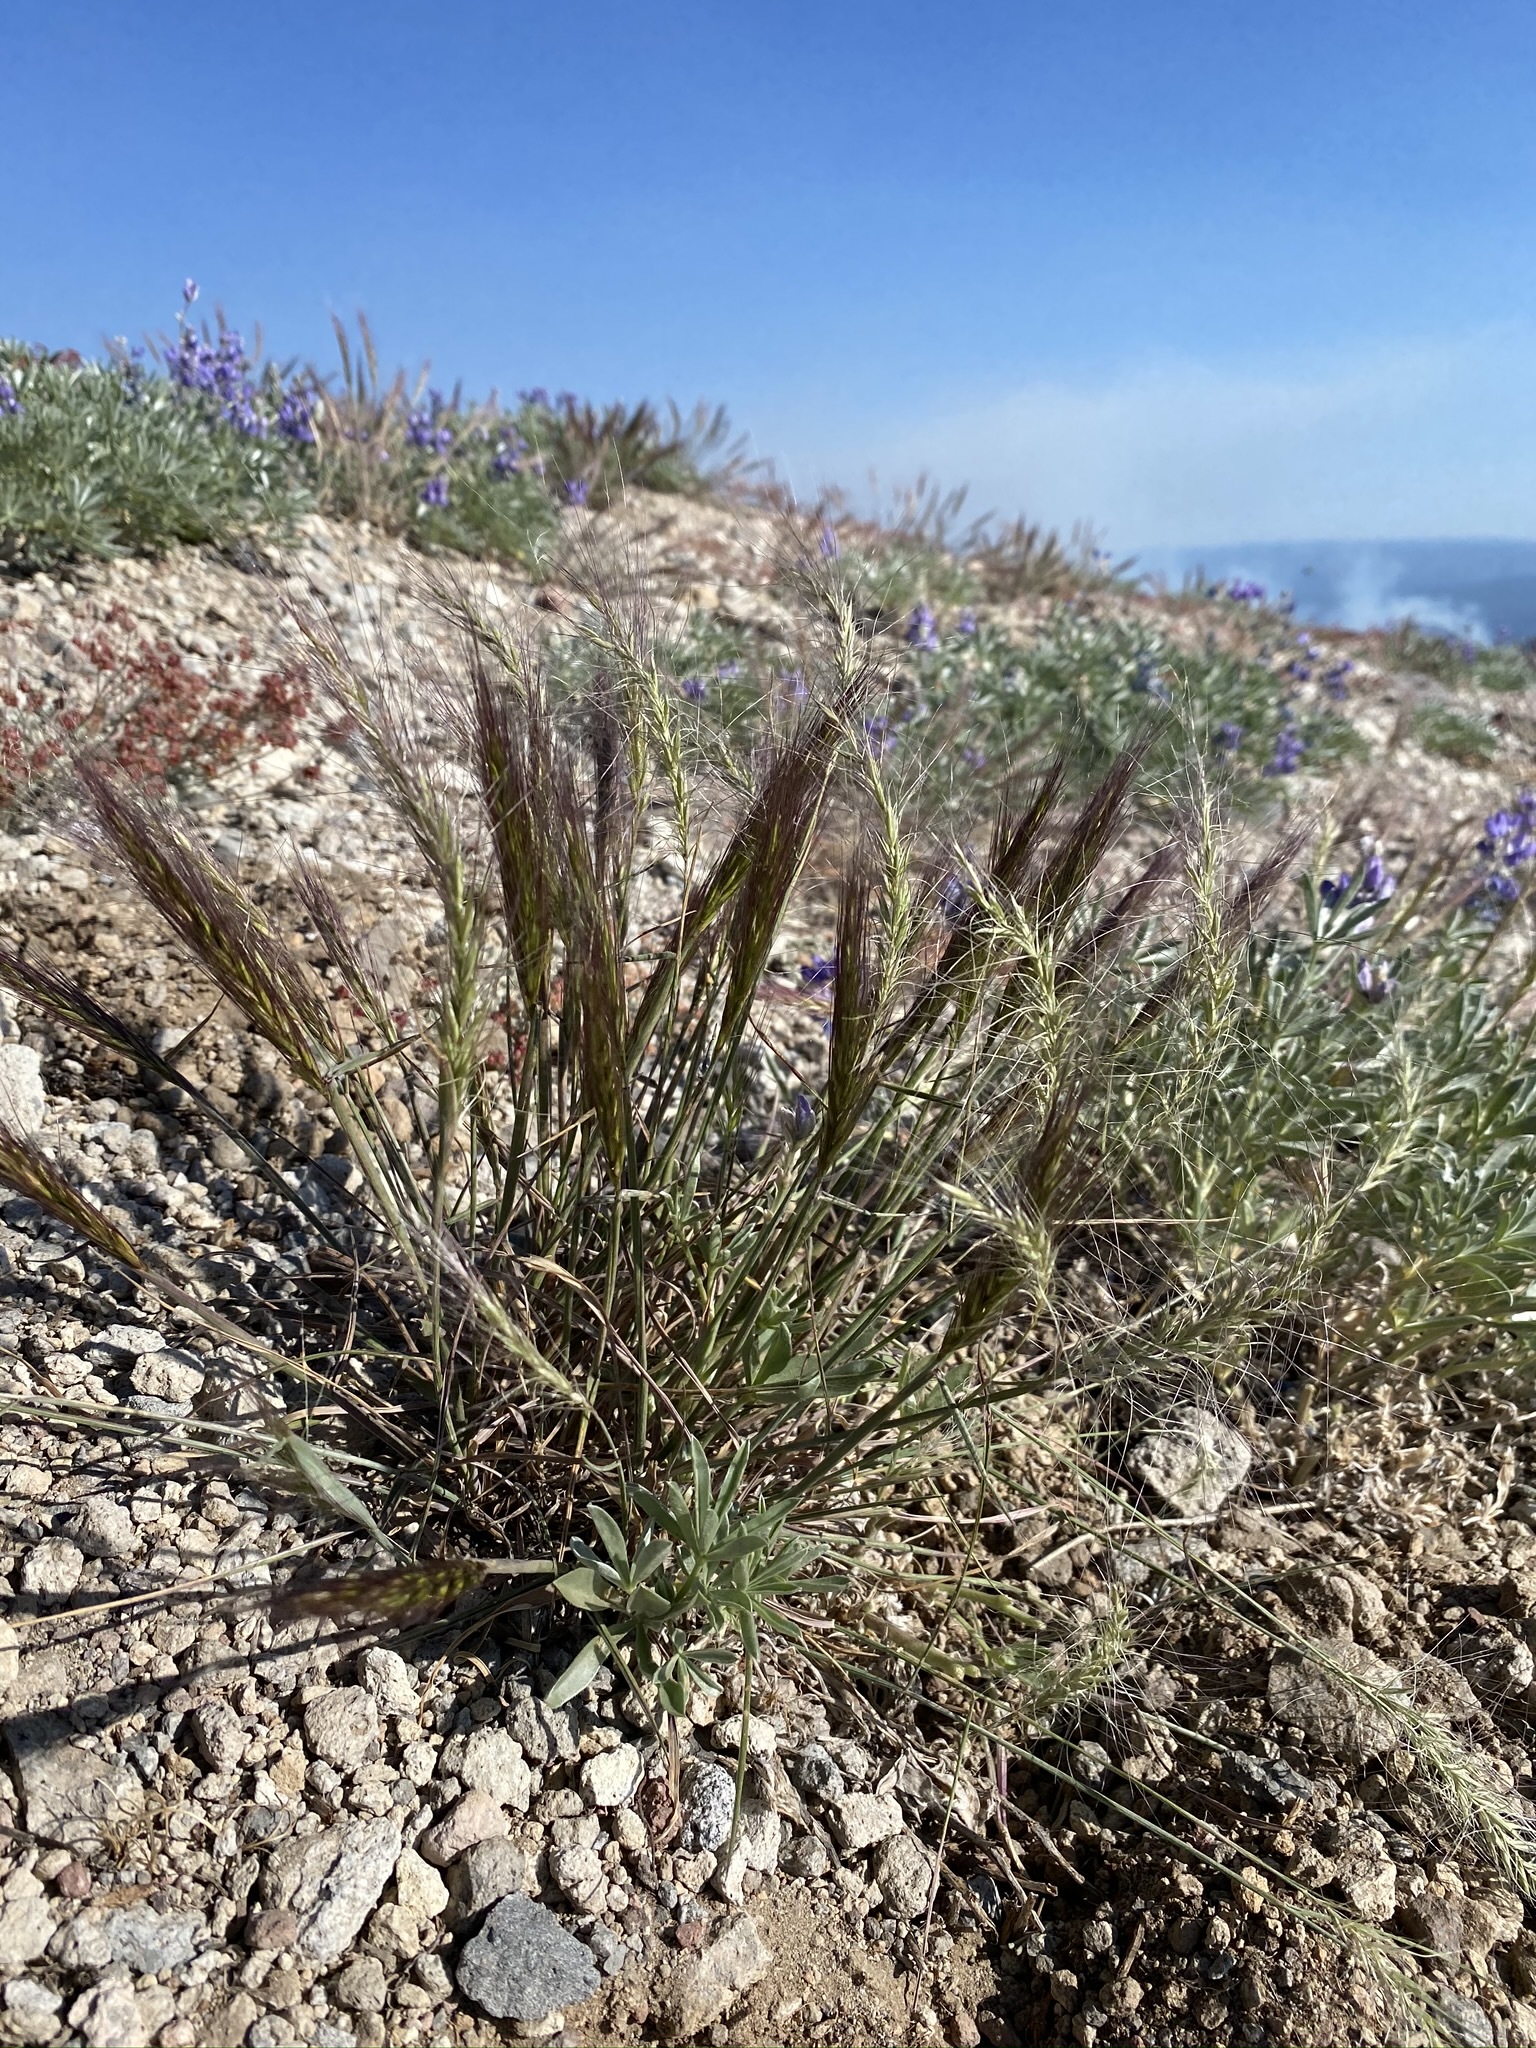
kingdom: Plantae
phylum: Tracheophyta
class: Liliopsida
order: Poales
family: Poaceae
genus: Elymus
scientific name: Elymus elymoides
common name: Bottlebrush squirreltail
